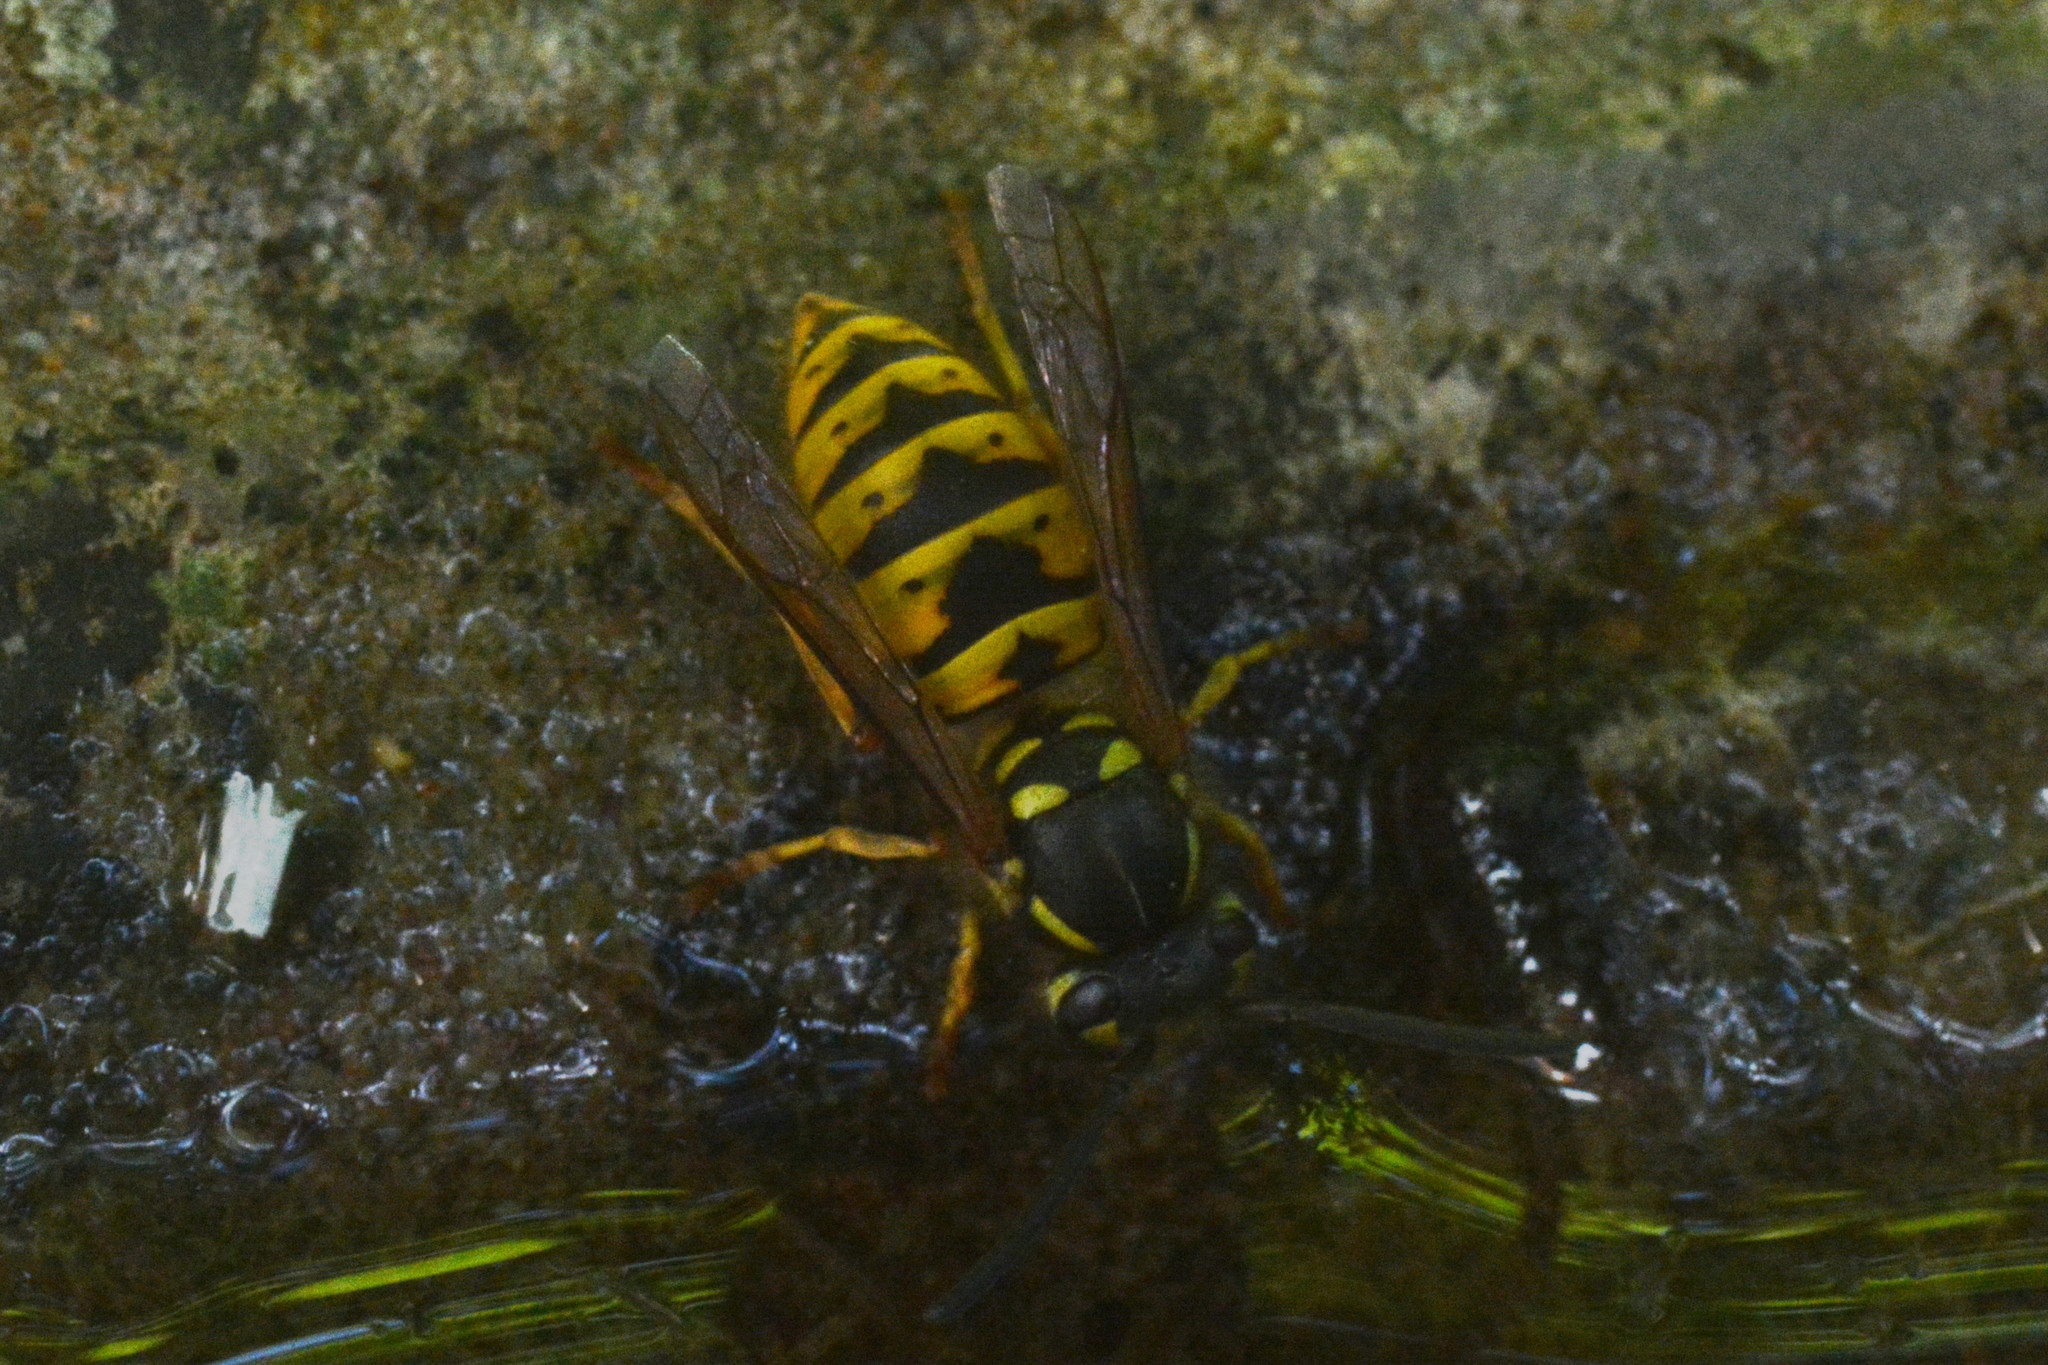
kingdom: Animalia
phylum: Arthropoda
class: Insecta
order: Hymenoptera
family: Vespidae
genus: Vespula
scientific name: Vespula vulgaris
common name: Common wasp
